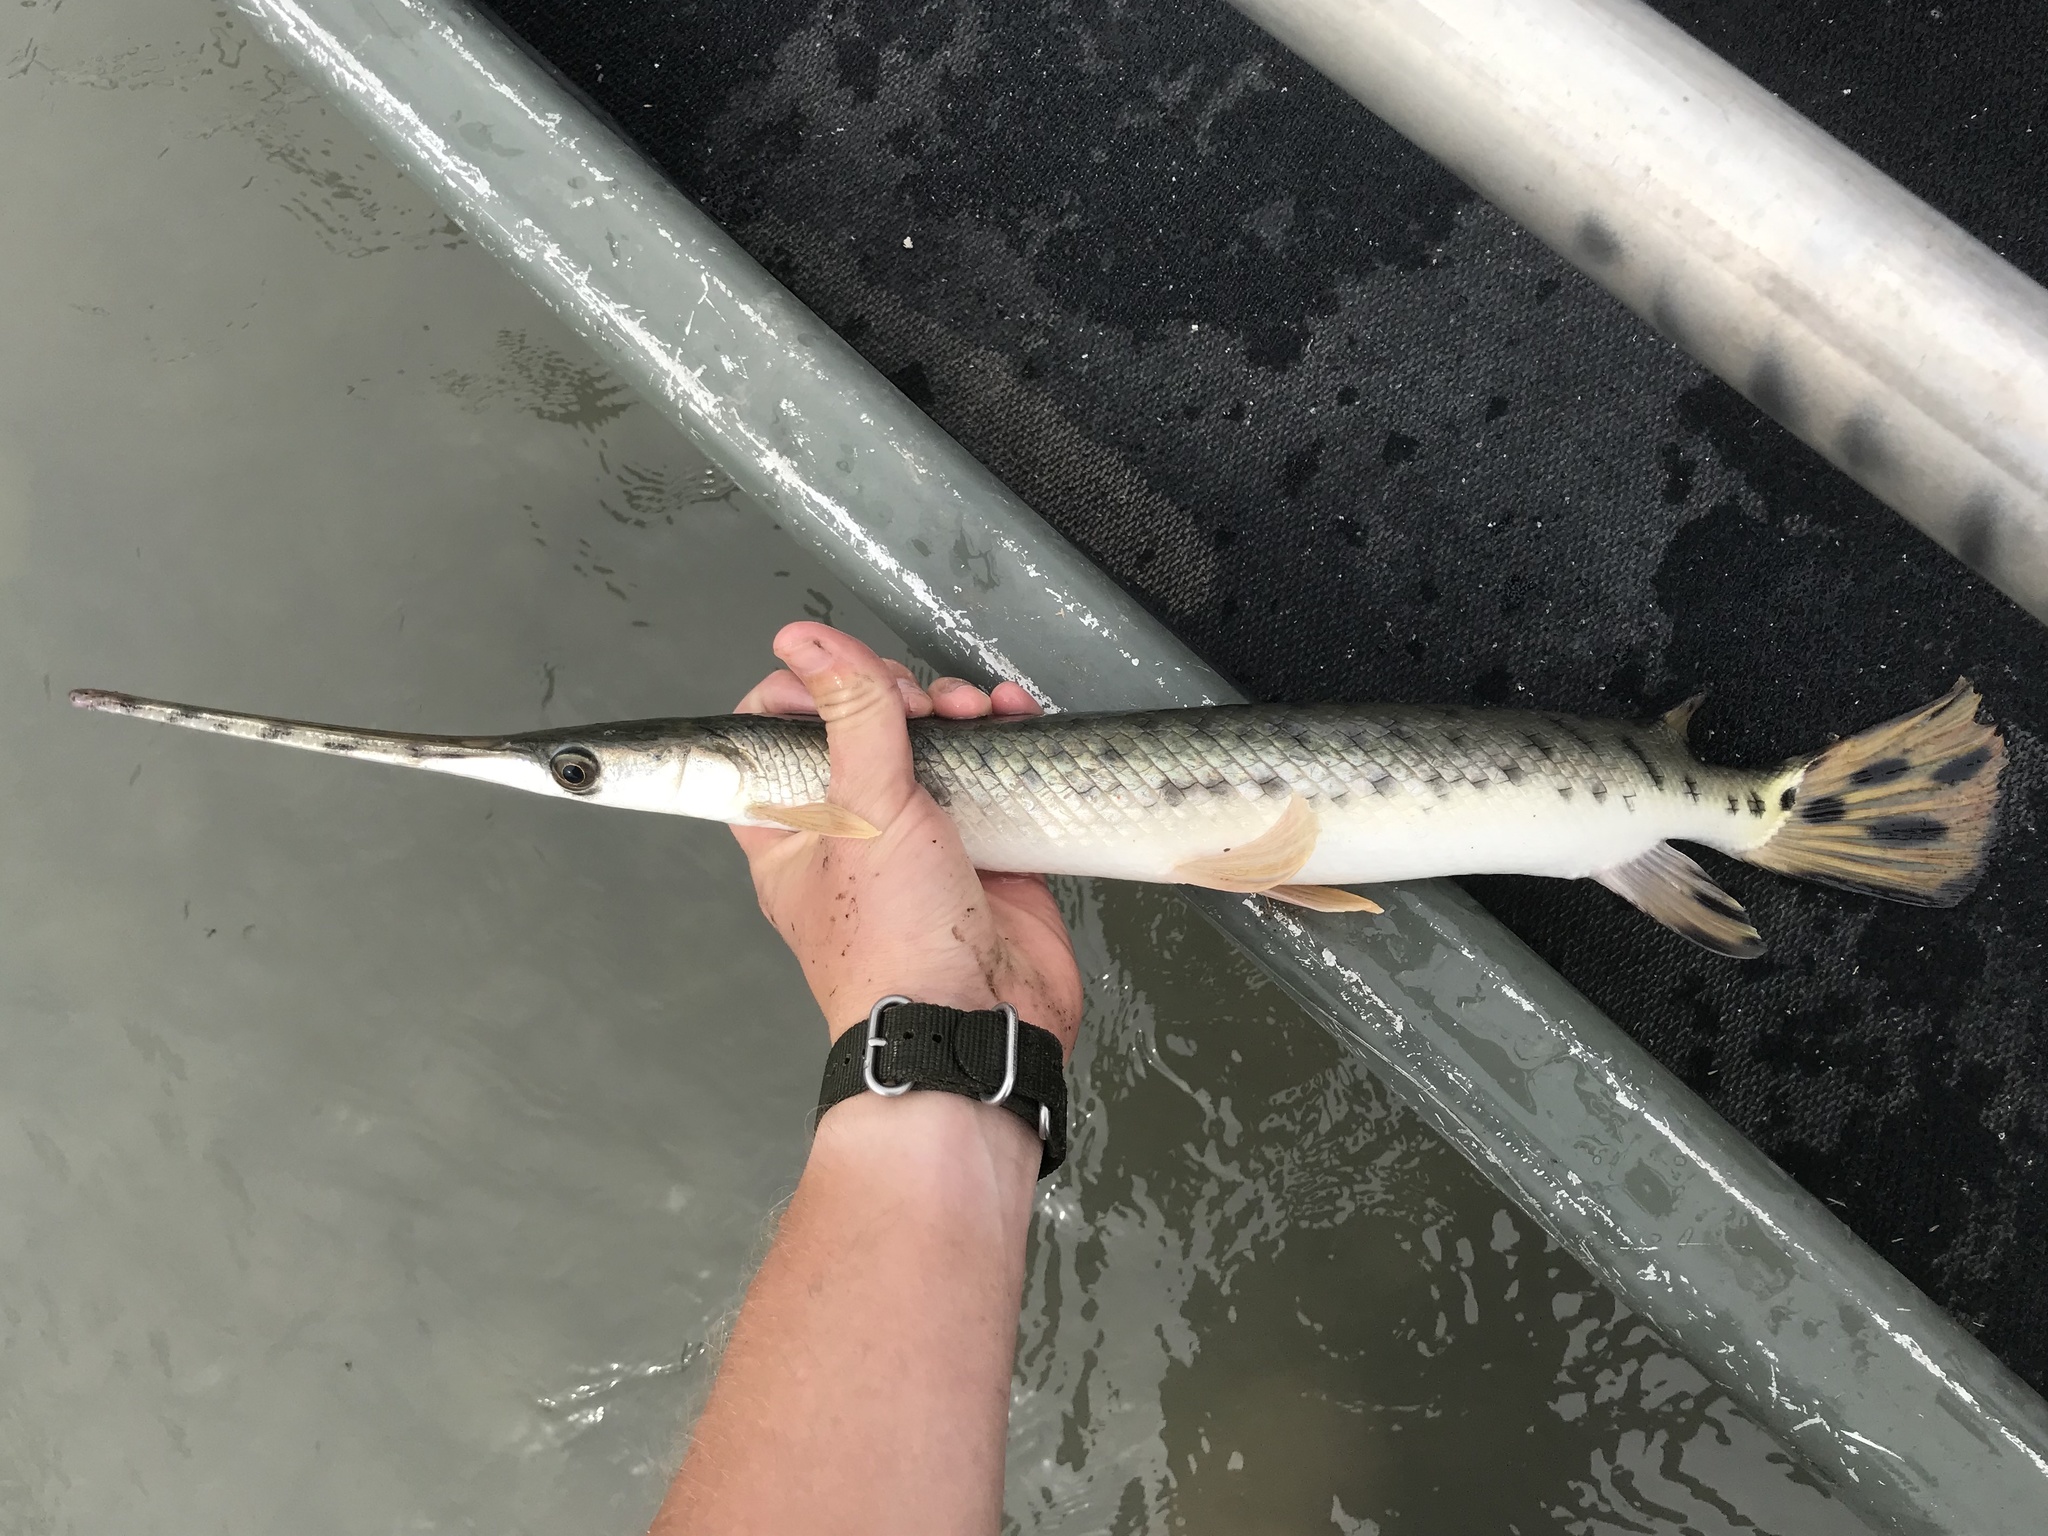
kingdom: Animalia
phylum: Chordata
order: Lepisosteiformes
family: Lepisosteidae
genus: Lepisosteus
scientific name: Lepisosteus osseus
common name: Longnose gar
